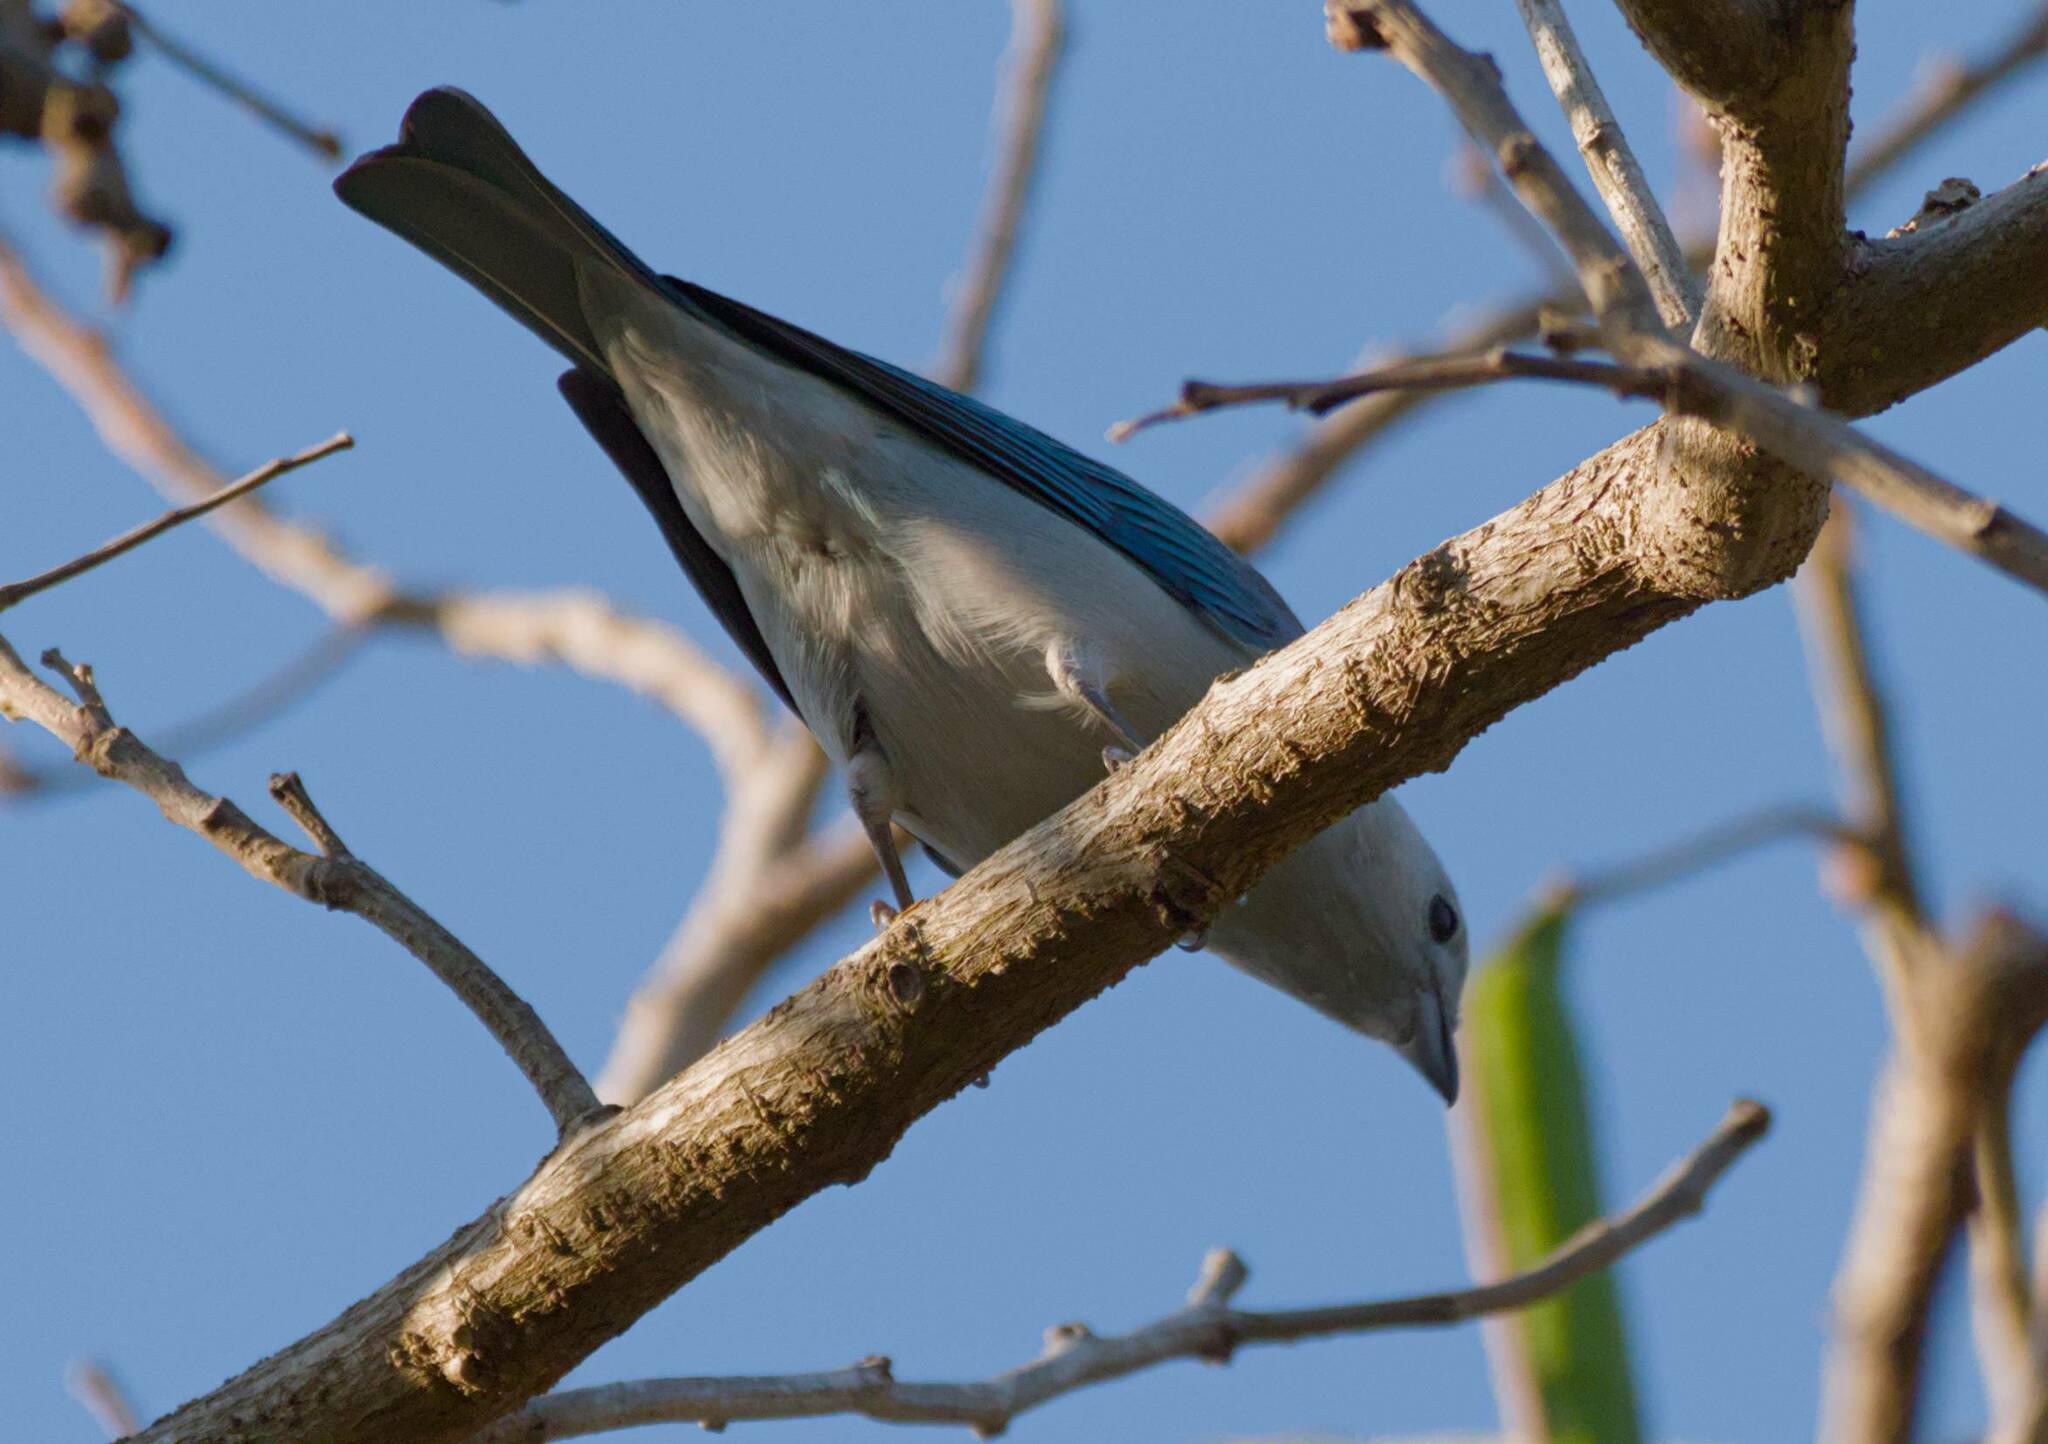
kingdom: Animalia
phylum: Chordata
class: Aves
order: Passeriformes
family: Thraupidae
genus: Thraupis
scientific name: Thraupis episcopus
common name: Blue-grey tanager
